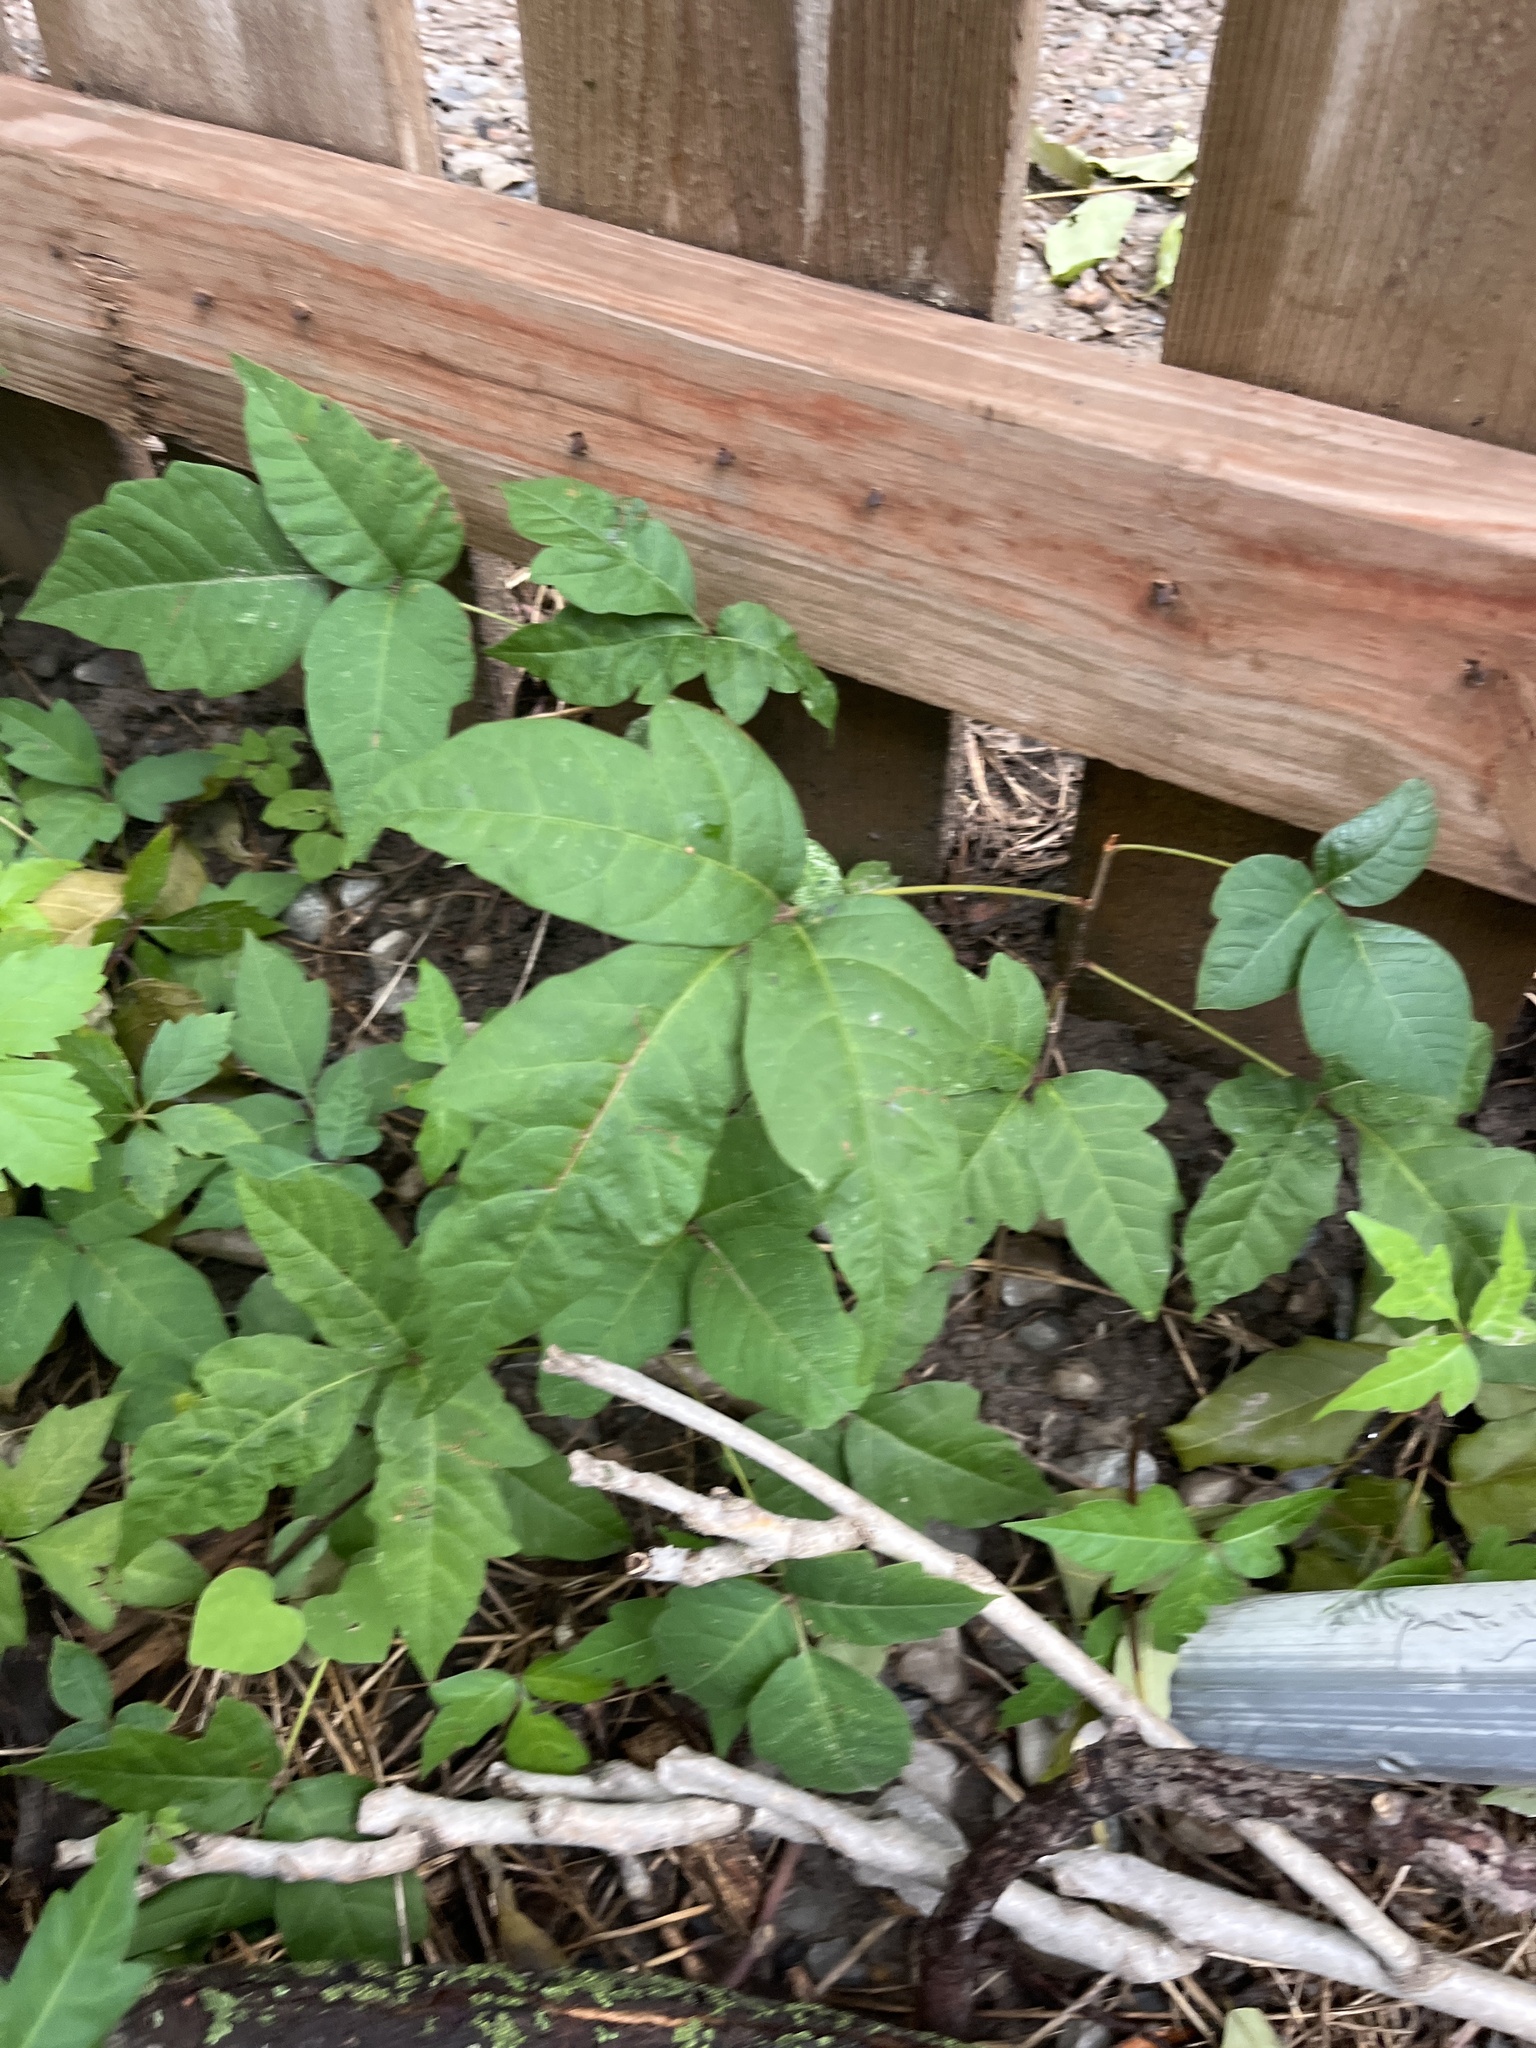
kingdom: Plantae
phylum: Tracheophyta
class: Magnoliopsida
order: Sapindales
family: Anacardiaceae
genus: Toxicodendron
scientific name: Toxicodendron radicans
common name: Poison ivy
